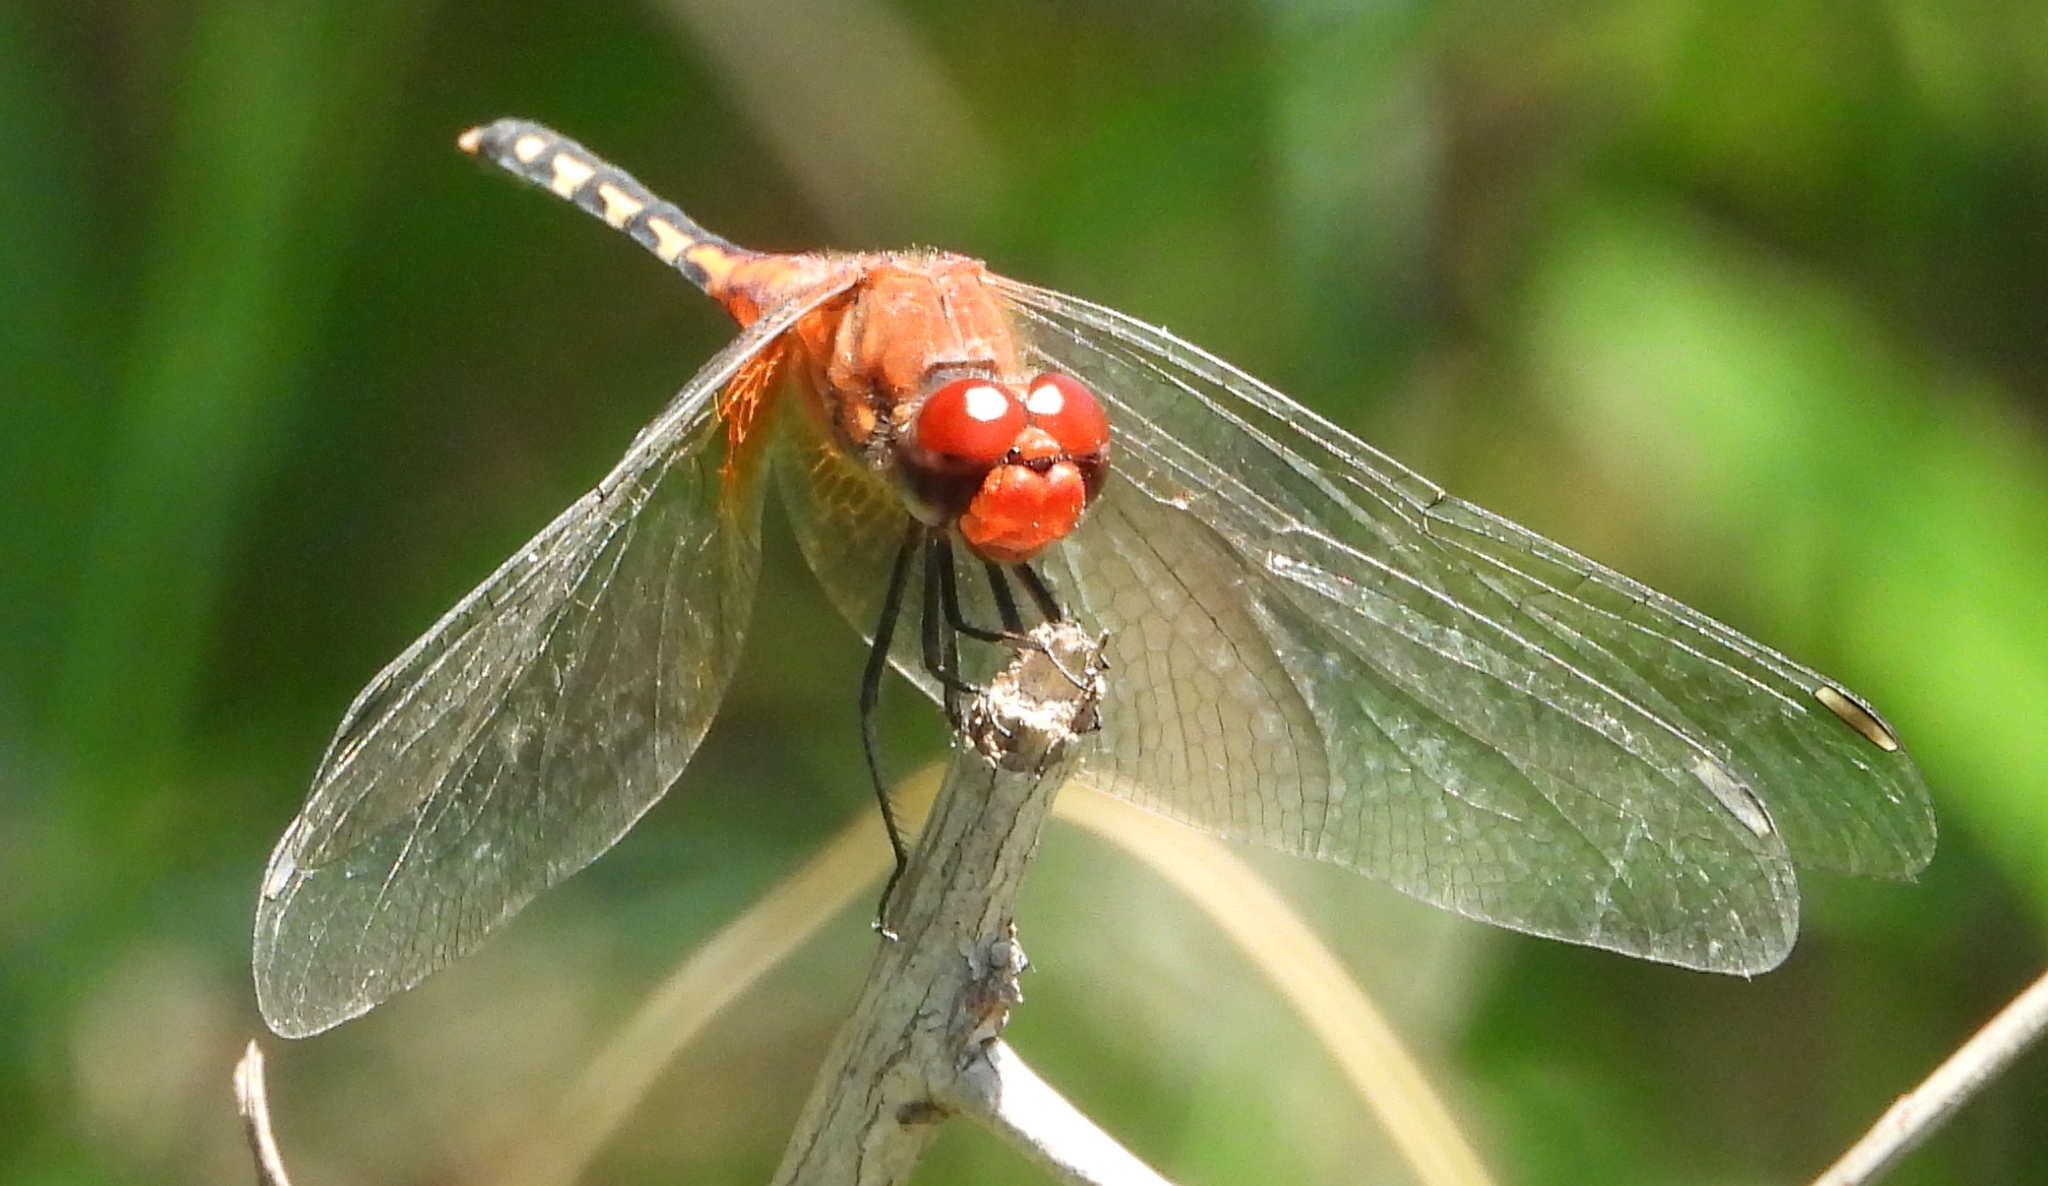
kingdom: Animalia
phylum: Arthropoda
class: Insecta
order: Odonata
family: Libellulidae
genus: Diplacodes
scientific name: Diplacodes luminans
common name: Barbet percher
